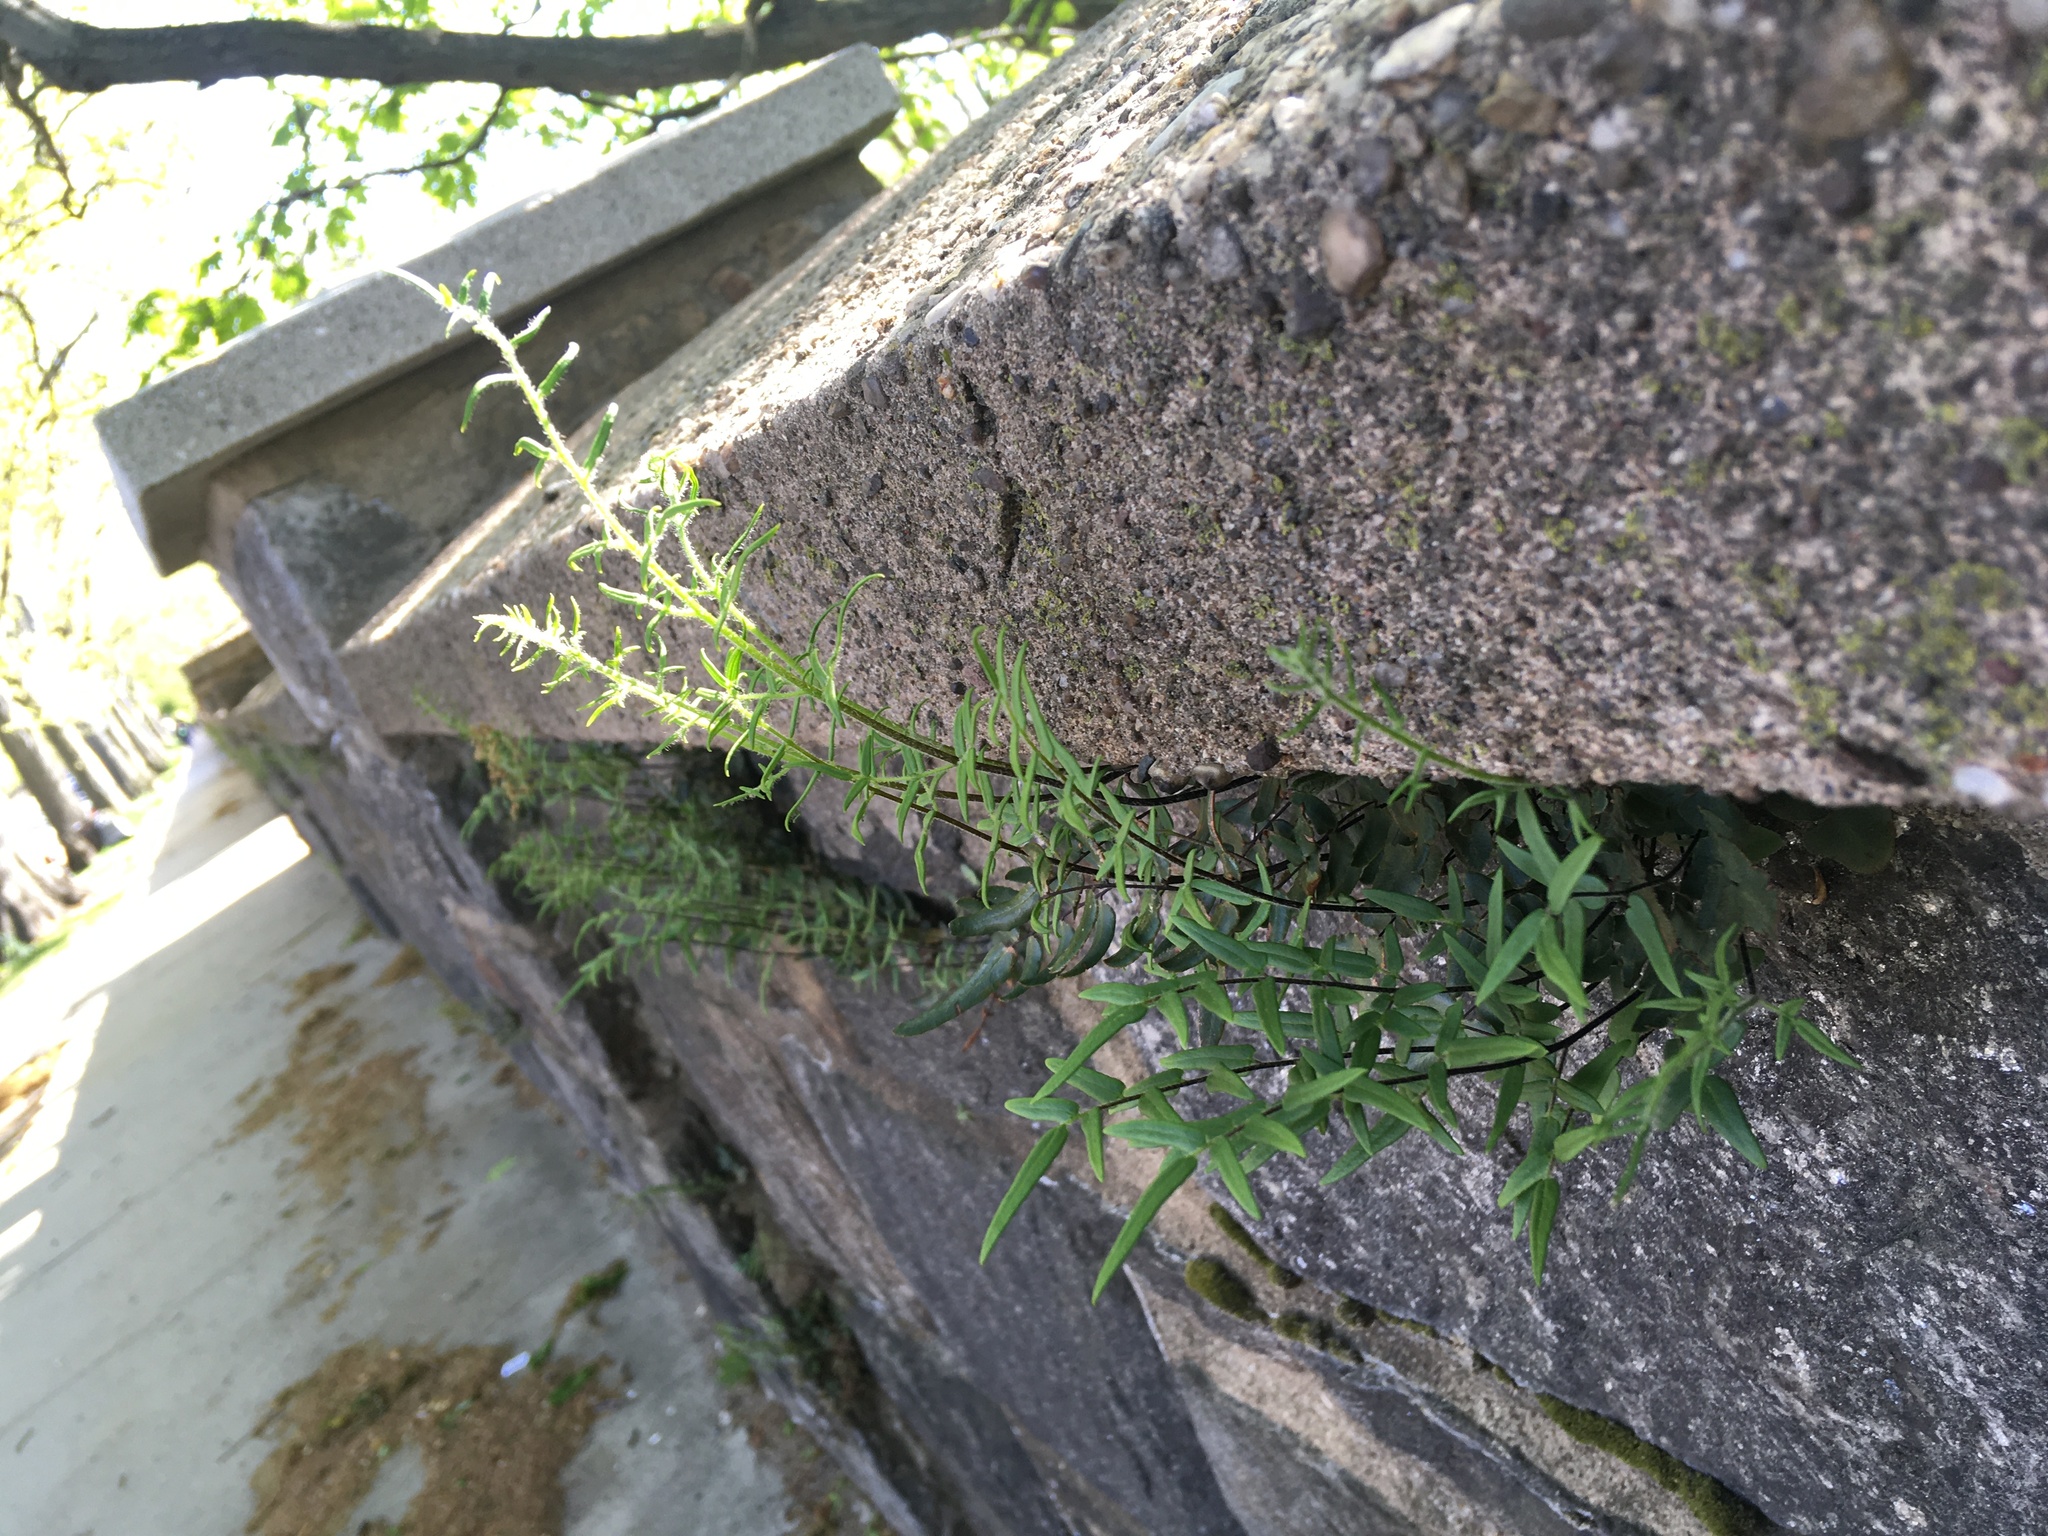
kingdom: Plantae
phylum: Tracheophyta
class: Polypodiopsida
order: Polypodiales
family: Pteridaceae
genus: Pellaea
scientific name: Pellaea atropurpurea
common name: Hairy cliffbrake
